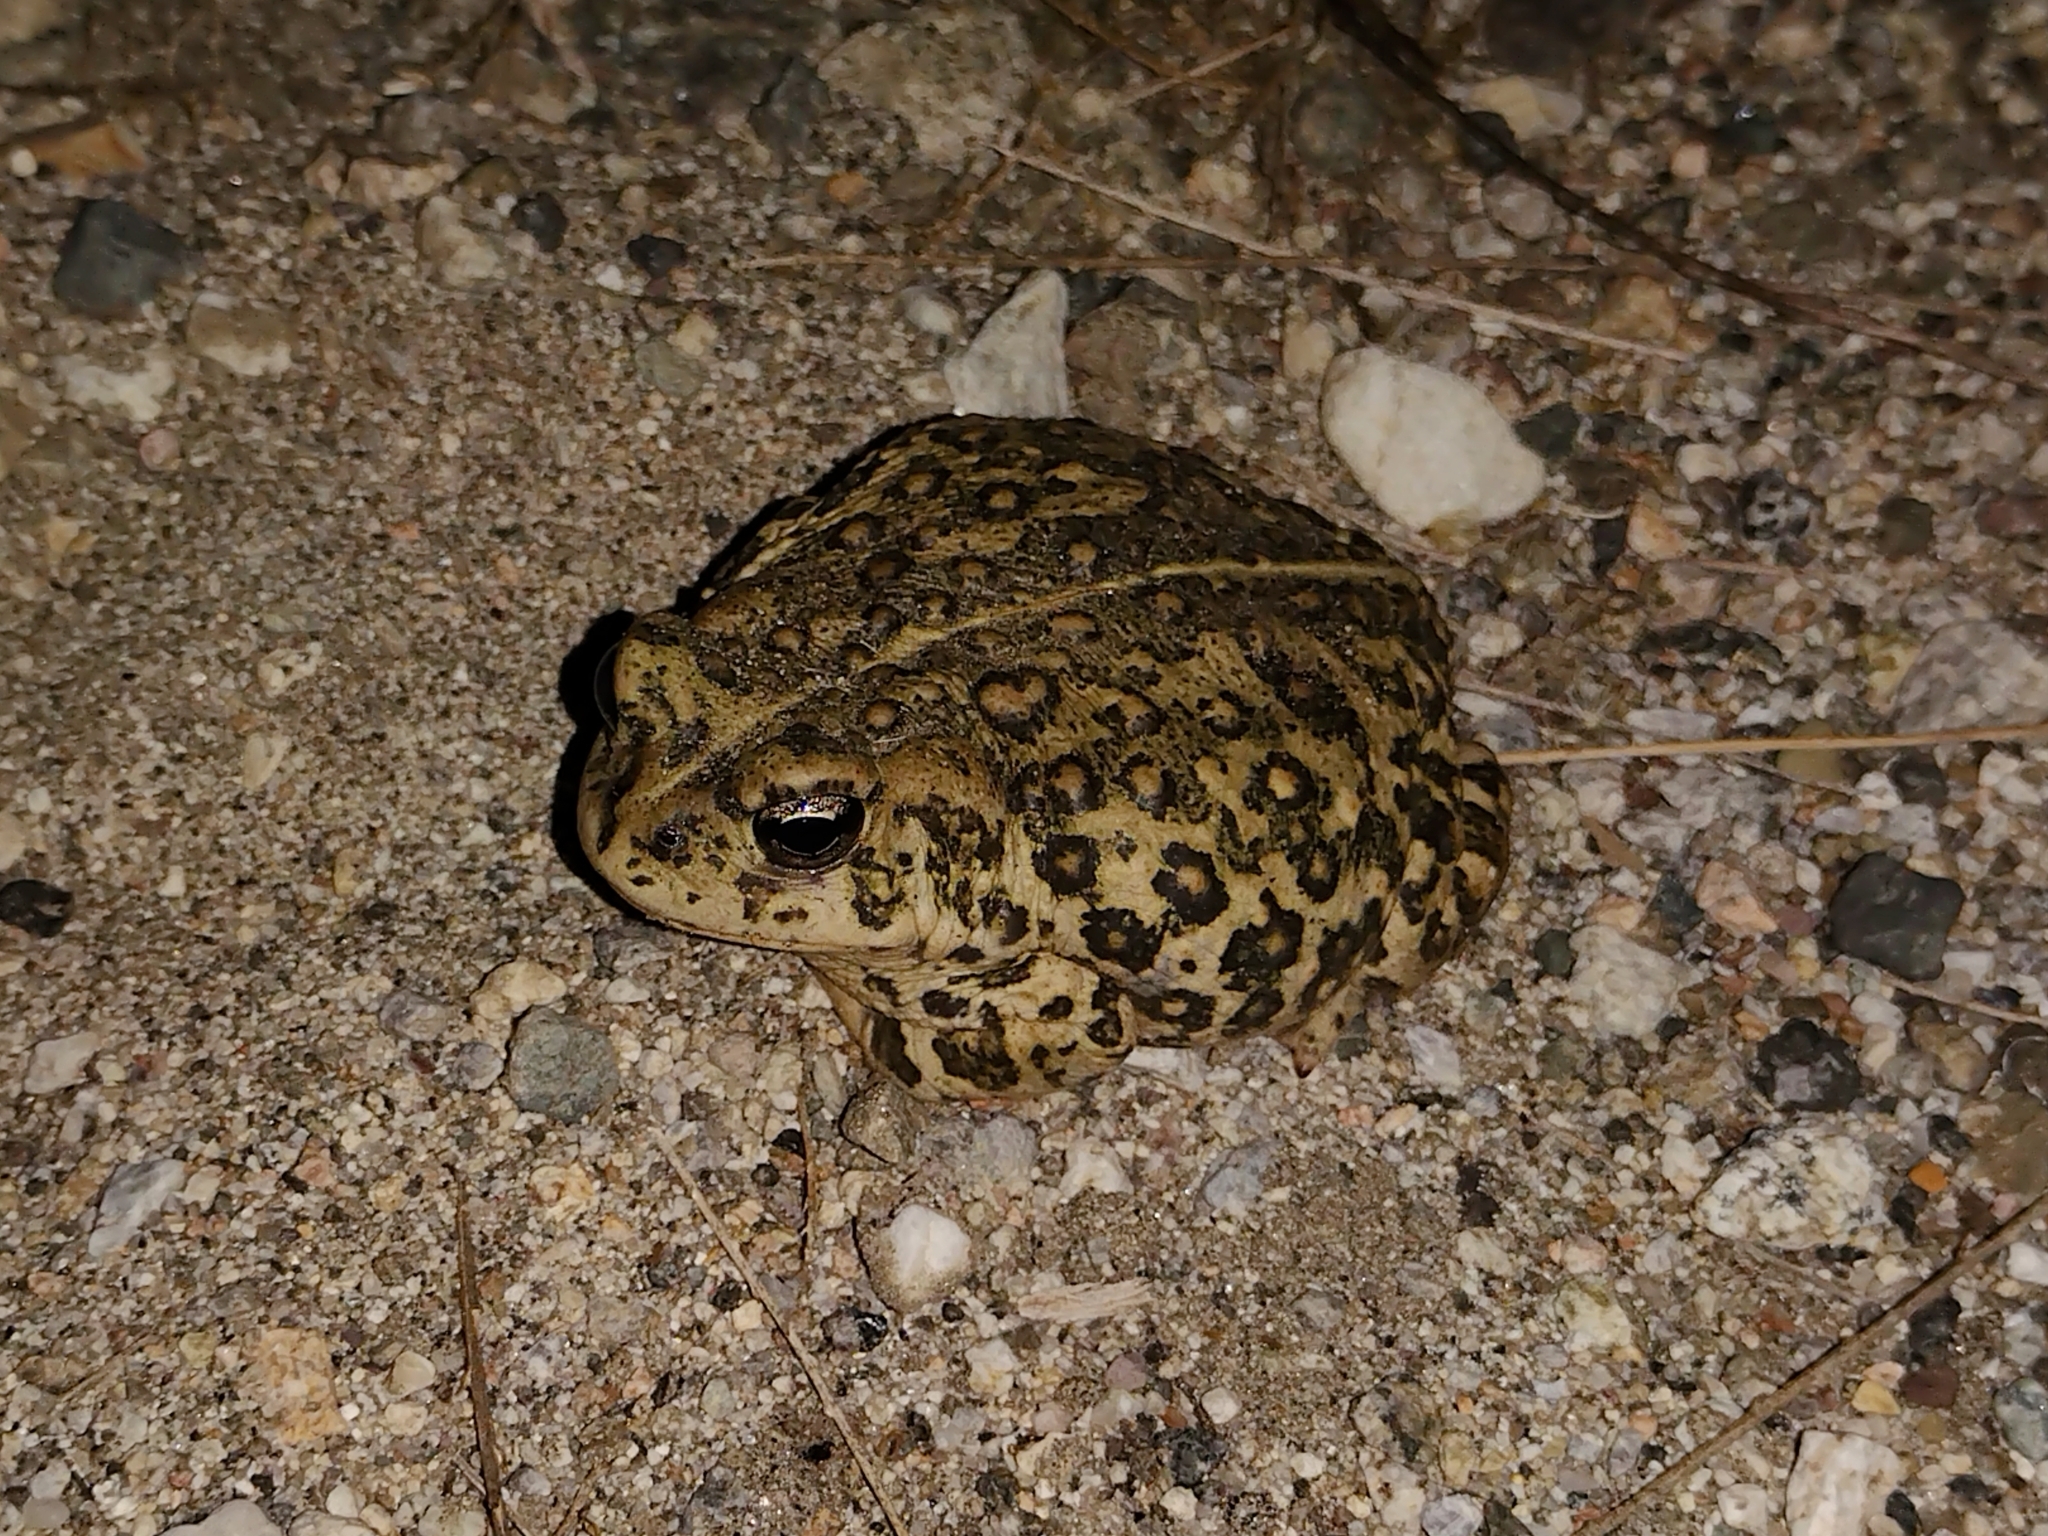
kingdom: Animalia
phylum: Chordata
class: Amphibia
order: Anura
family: Bufonidae
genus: Anaxyrus
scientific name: Anaxyrus boreas
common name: Western toad
